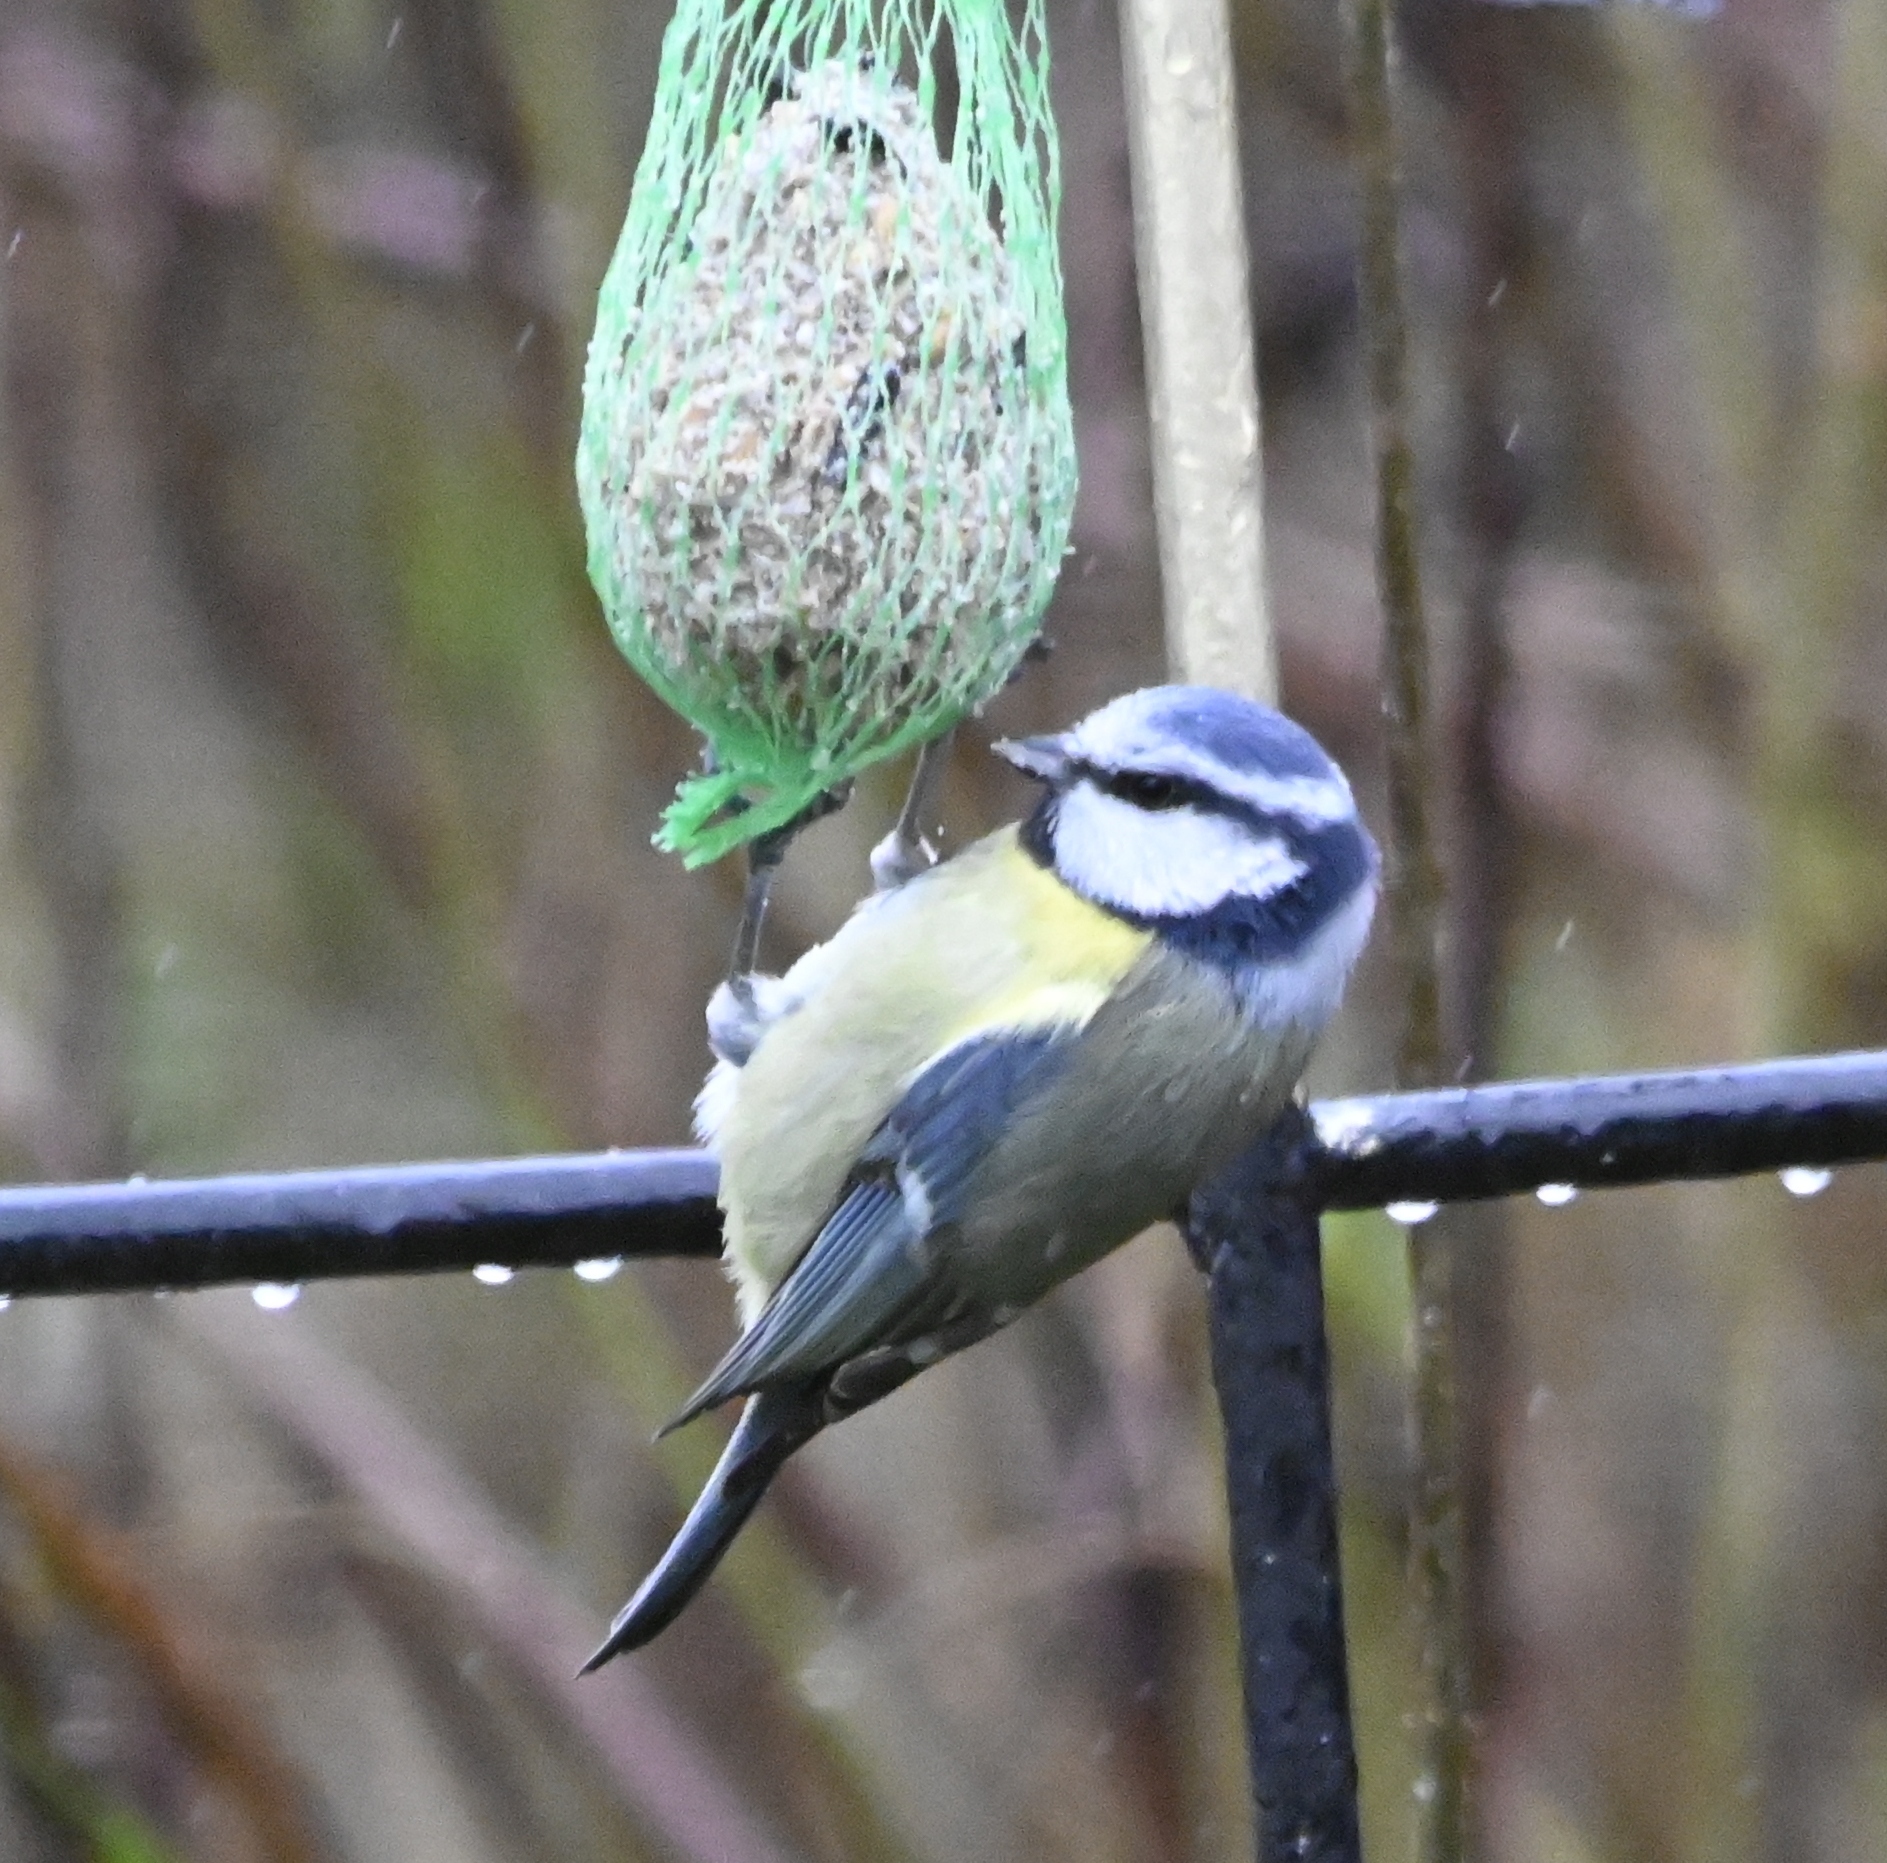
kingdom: Animalia
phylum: Chordata
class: Aves
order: Passeriformes
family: Paridae
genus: Cyanistes
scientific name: Cyanistes caeruleus
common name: Eurasian blue tit
